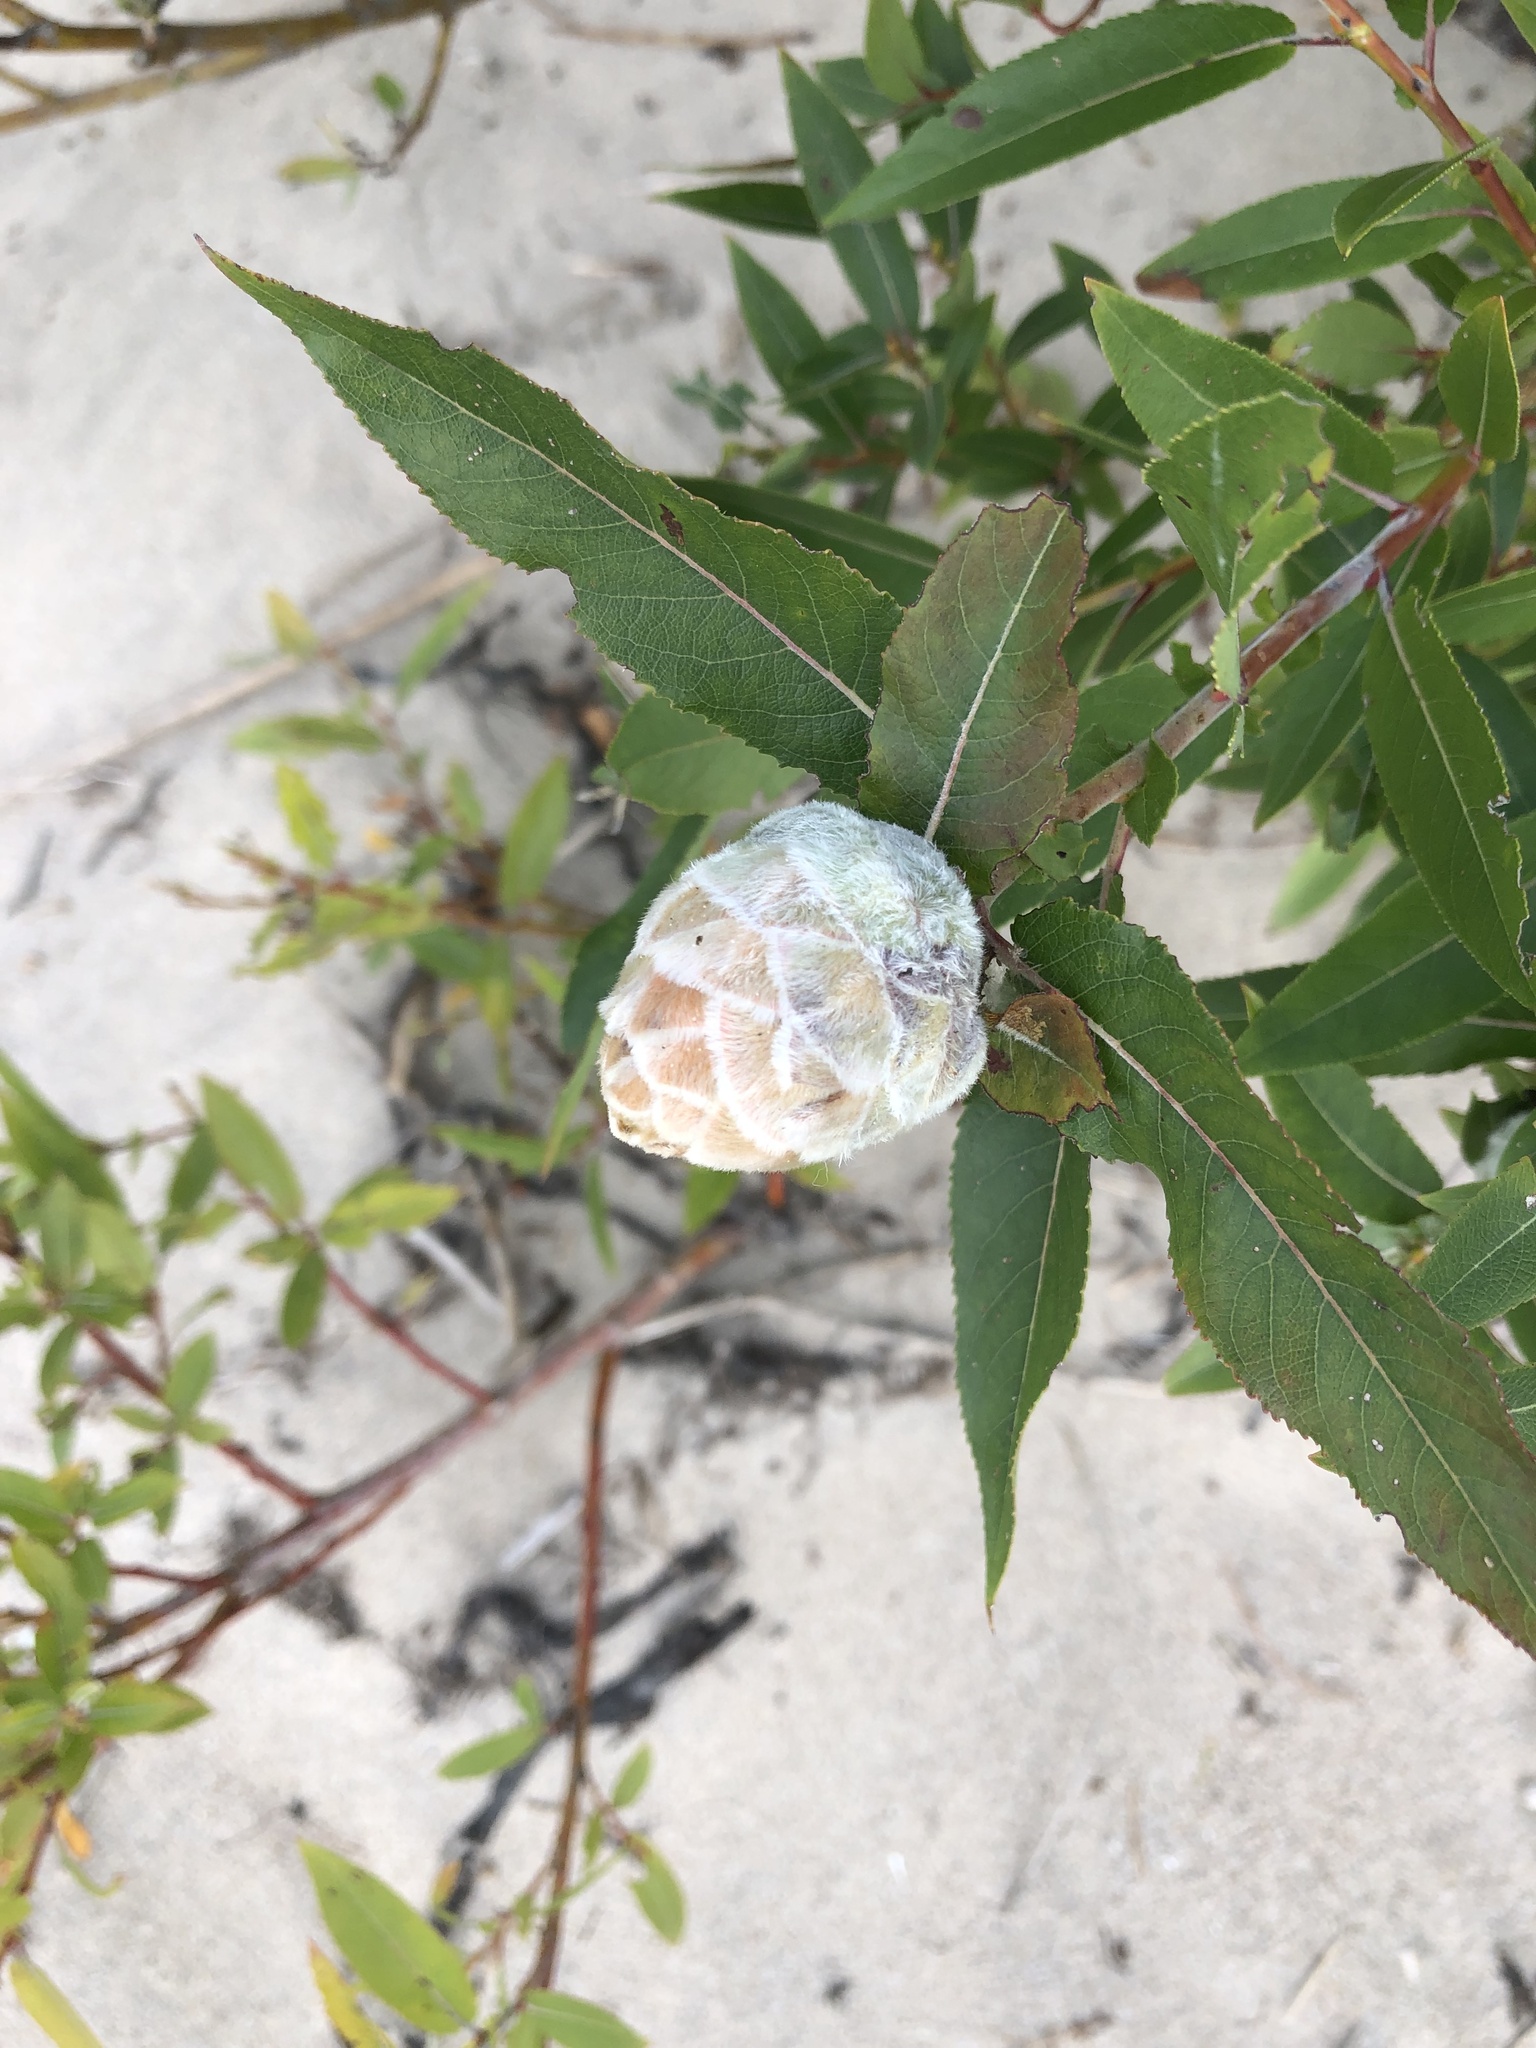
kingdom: Animalia
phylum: Arthropoda
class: Insecta
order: Diptera
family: Cecidomyiidae
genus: Rabdophaga
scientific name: Rabdophaga strobiloides
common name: Willow pinecone gall midge
